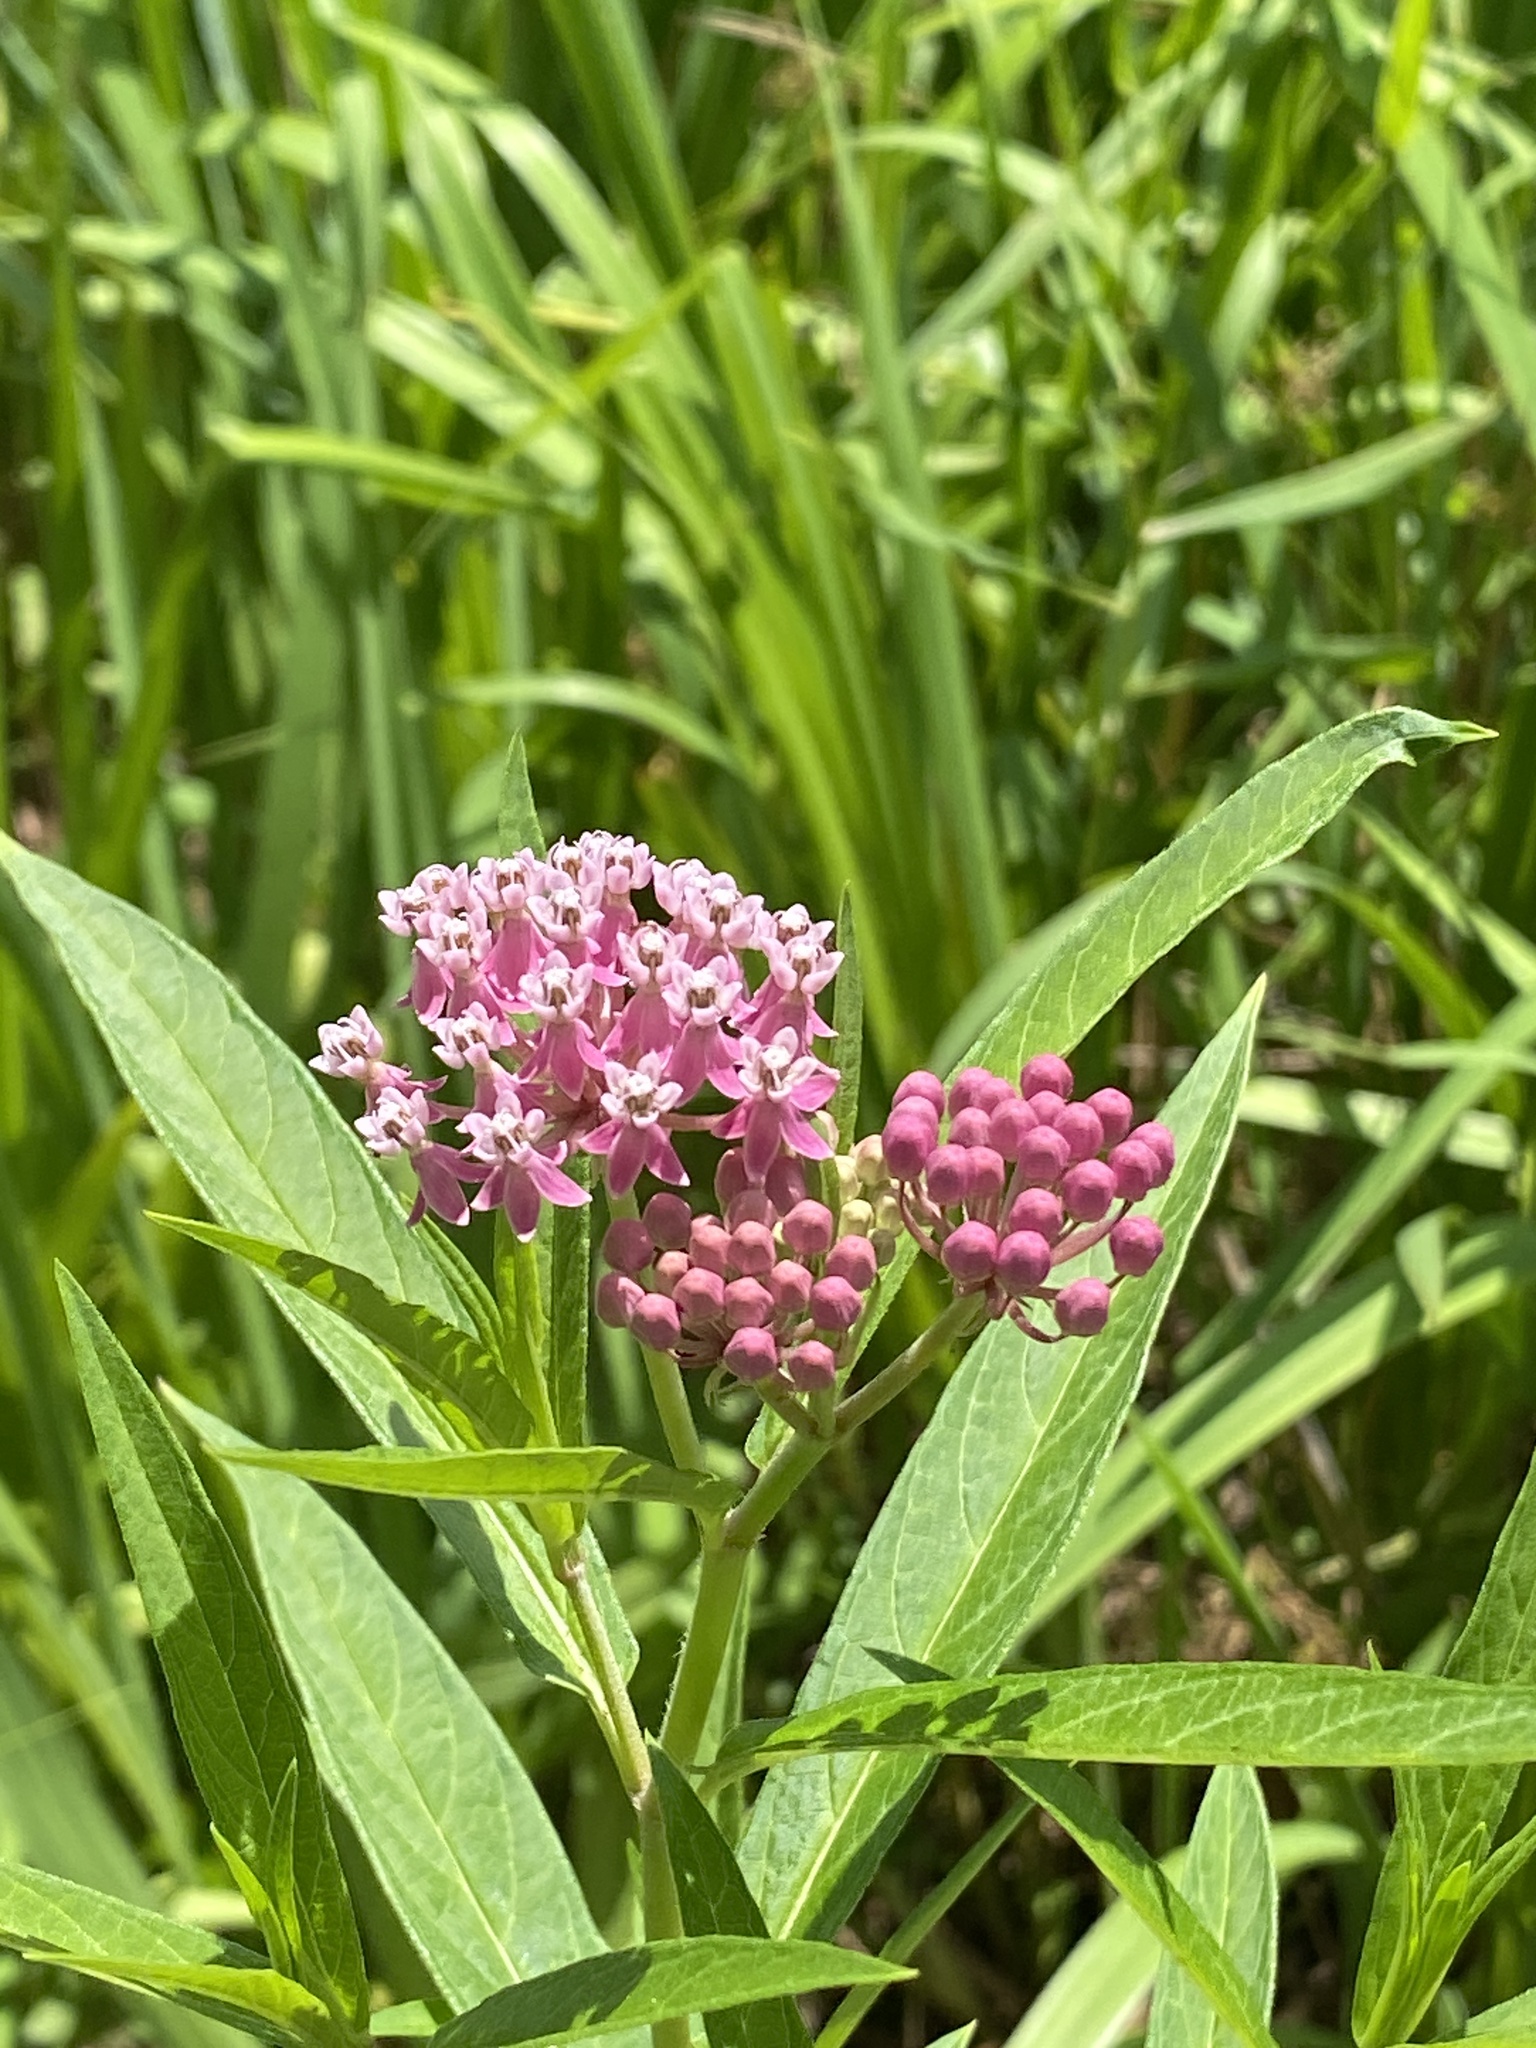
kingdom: Plantae
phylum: Tracheophyta
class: Magnoliopsida
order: Gentianales
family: Apocynaceae
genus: Asclepias
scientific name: Asclepias incarnata
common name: Swamp milkweed
